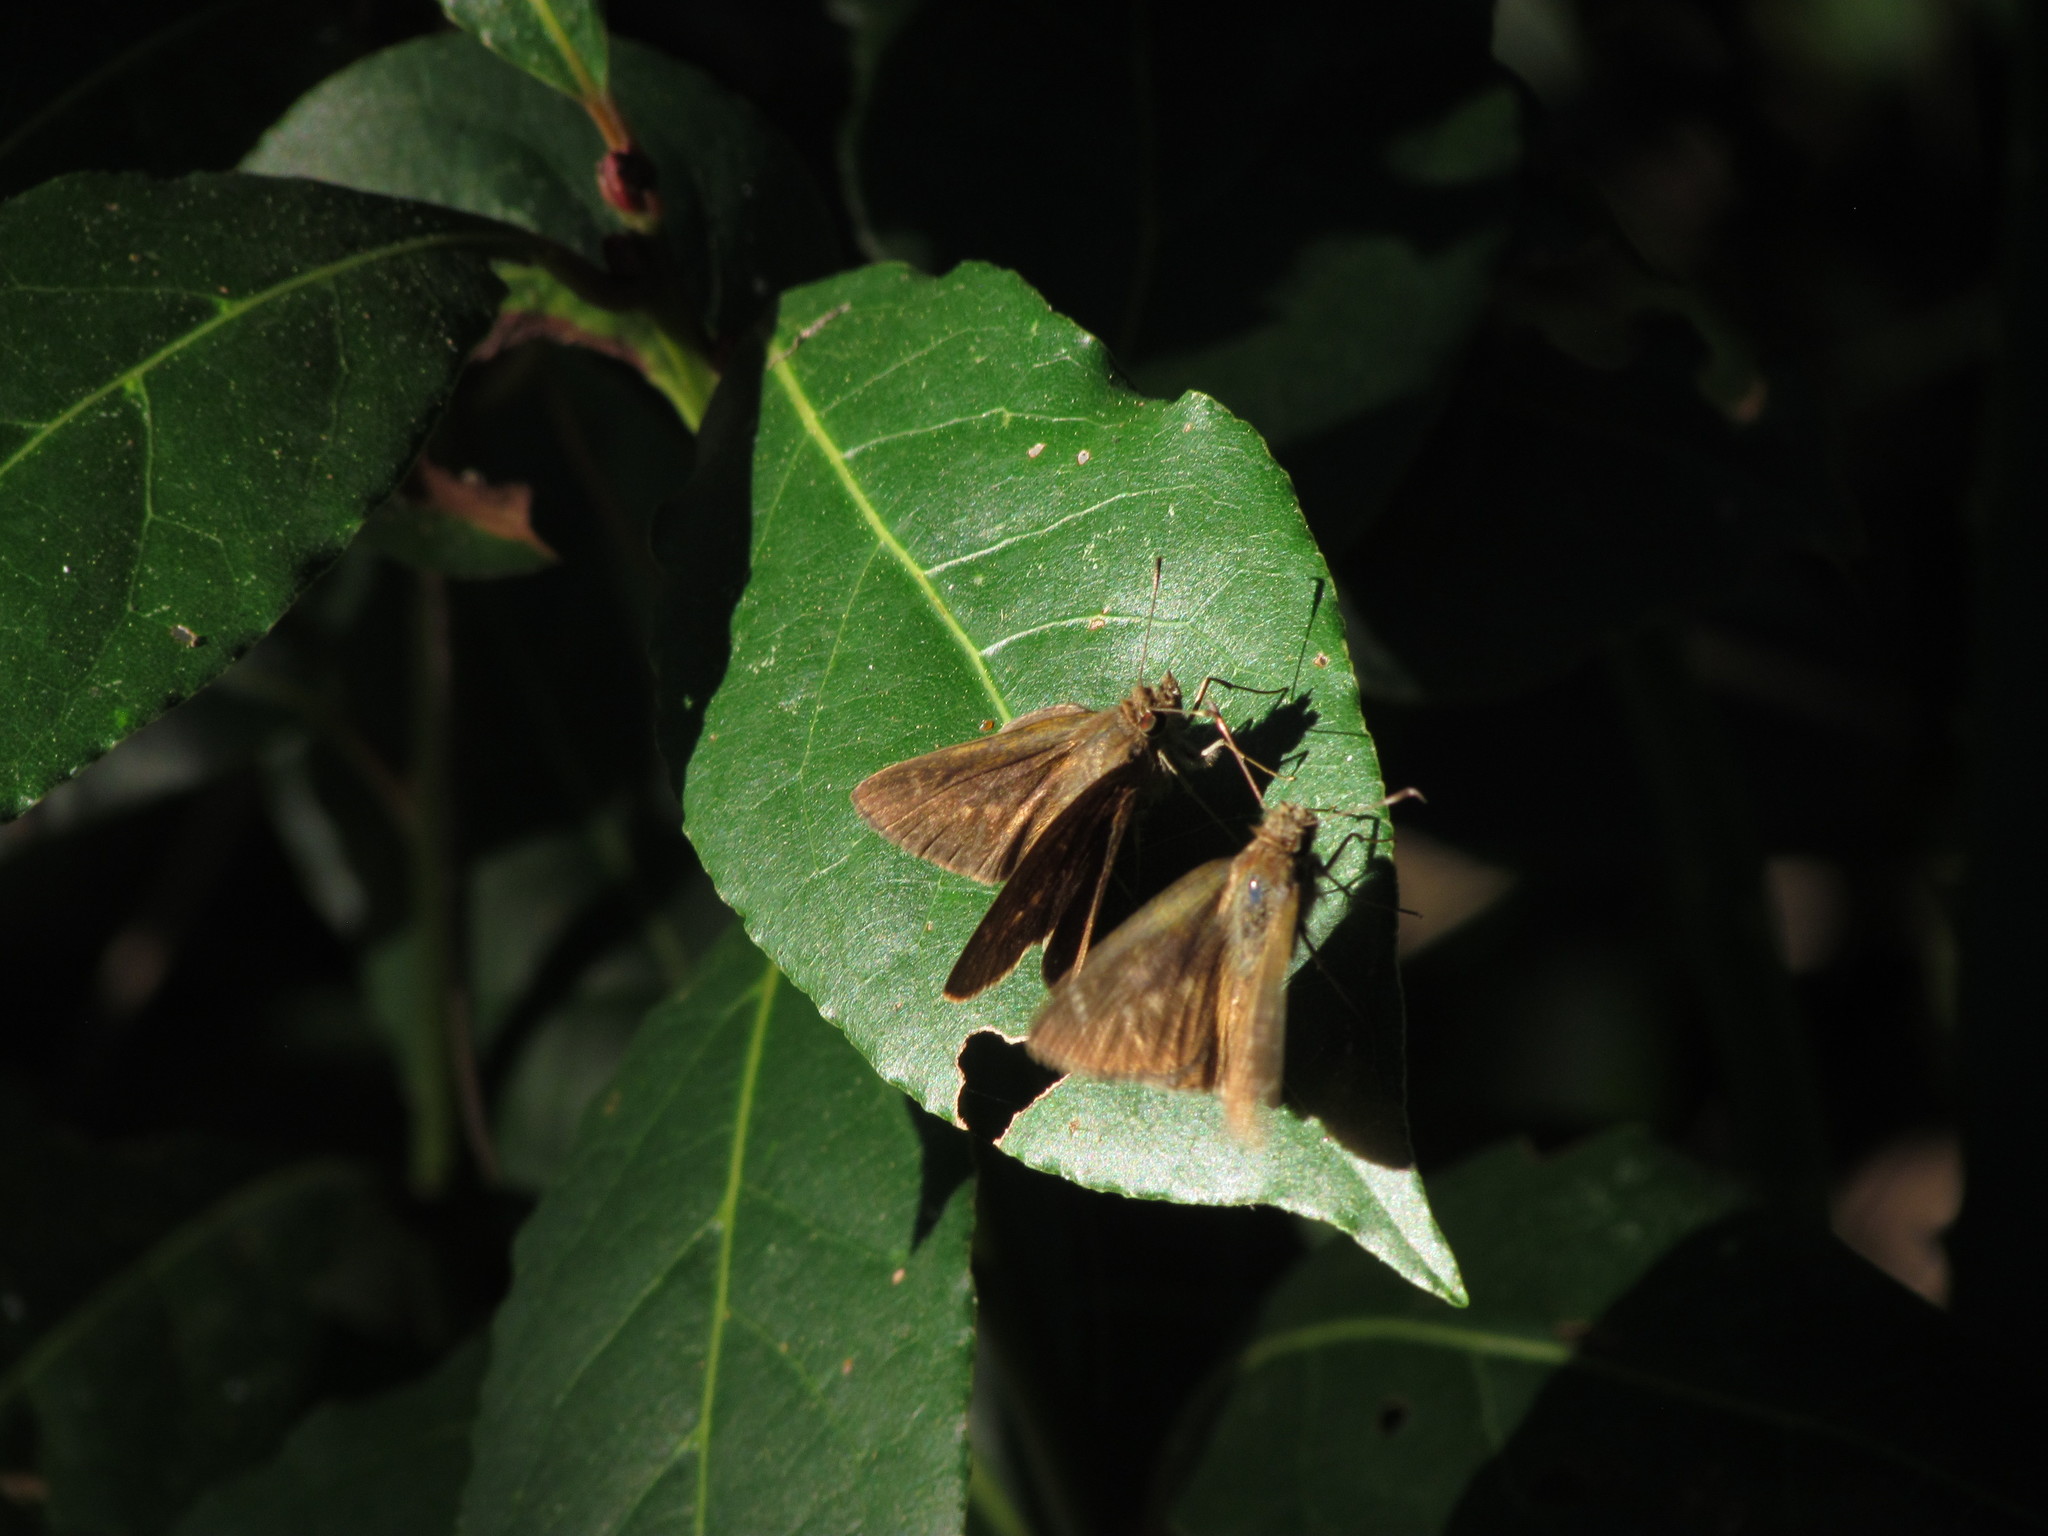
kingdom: Animalia
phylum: Arthropoda
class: Insecta
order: Lepidoptera
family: Hesperiidae
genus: Cymaenes
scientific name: Cymaenes gisca
